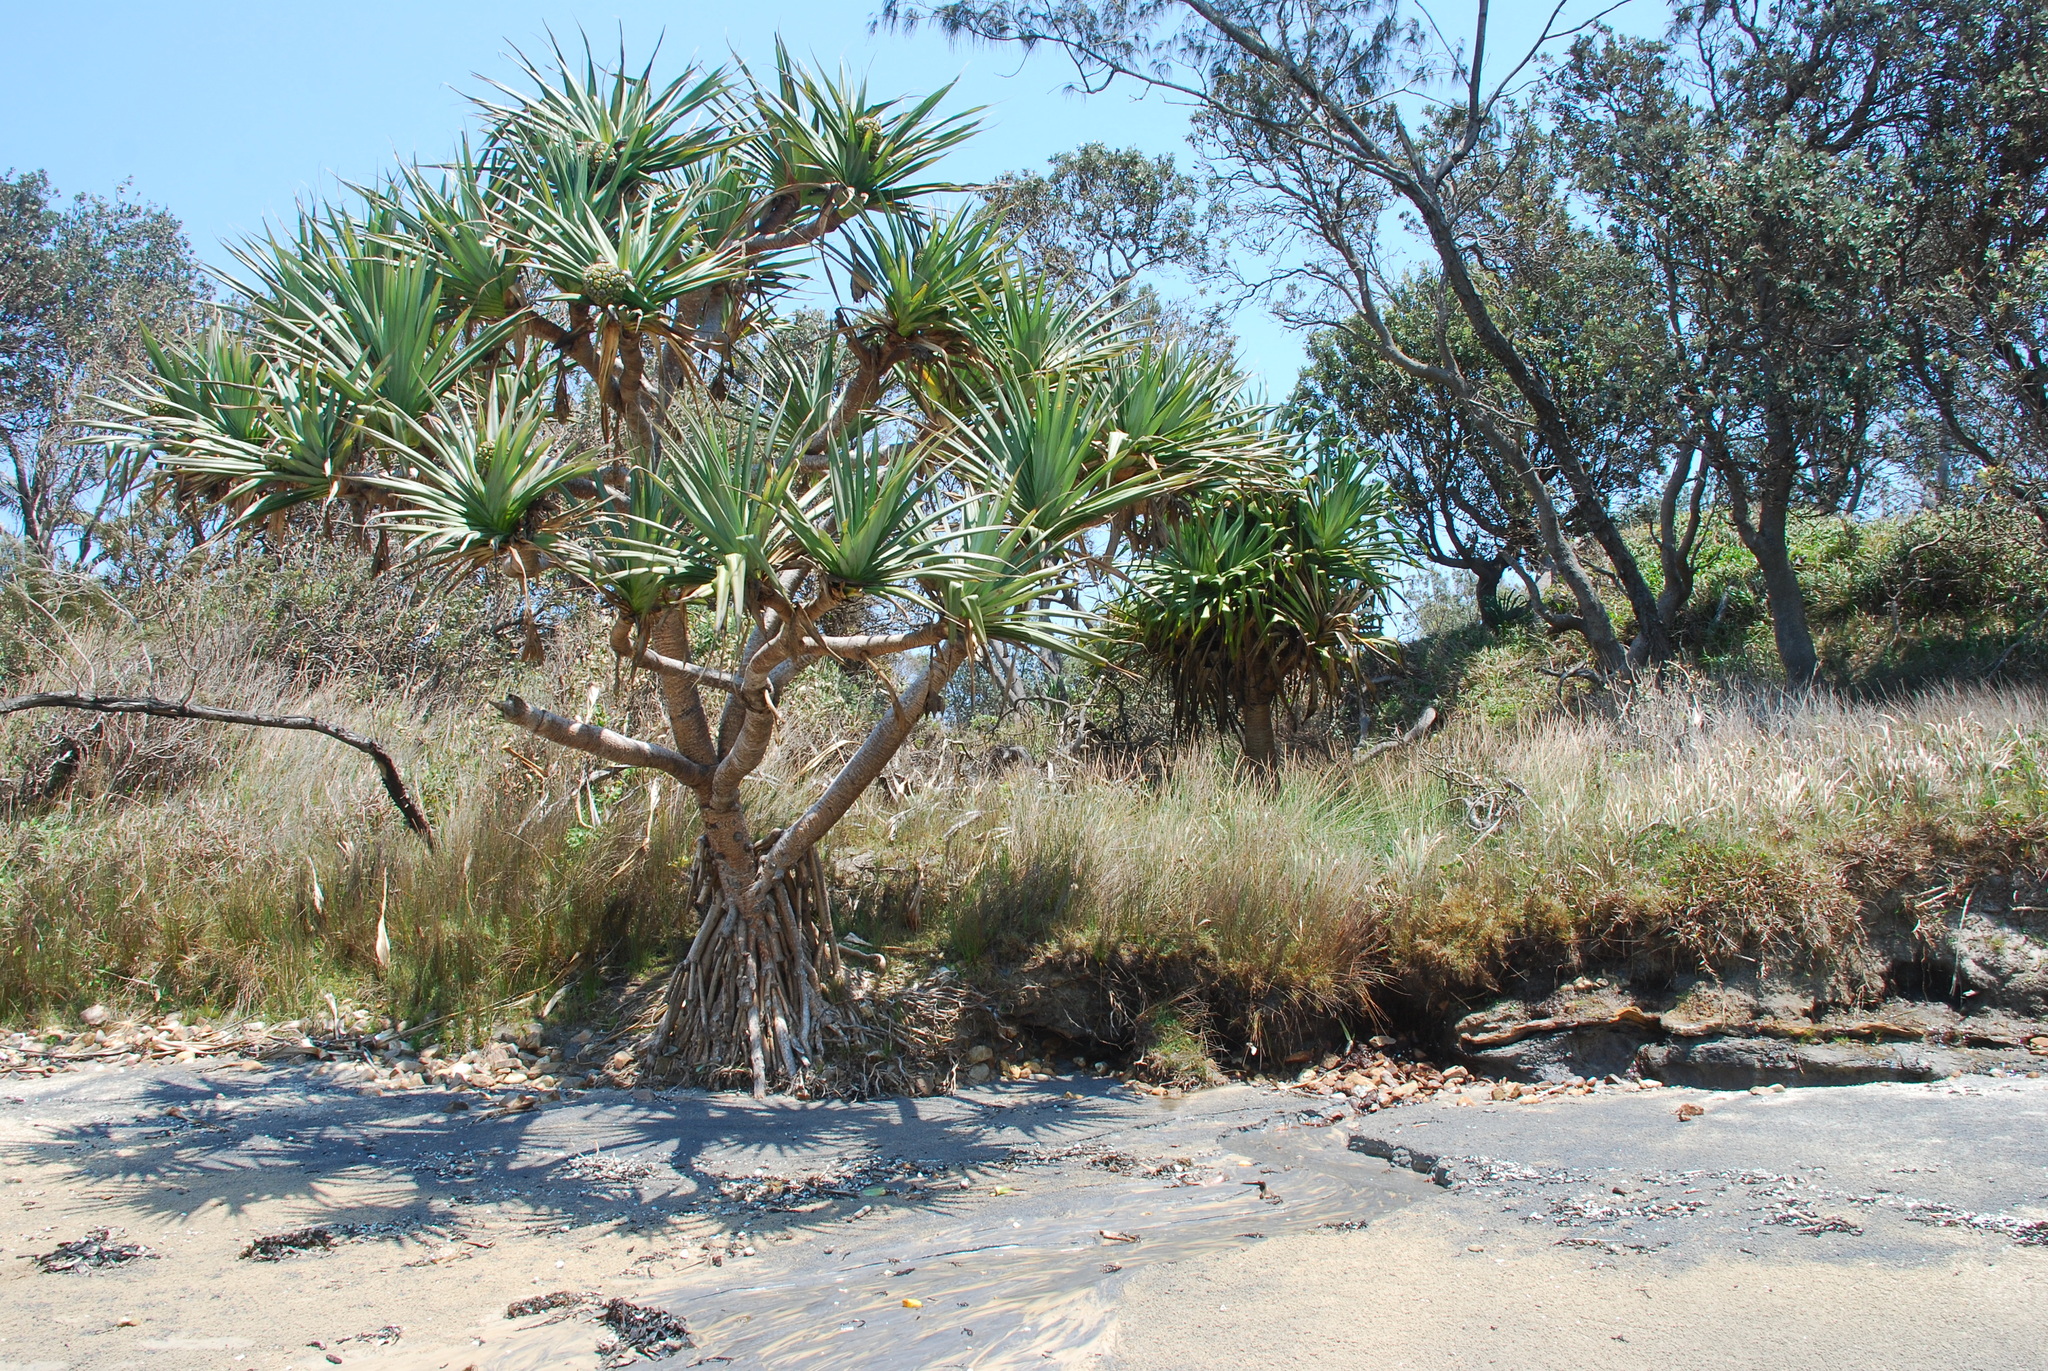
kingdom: Plantae
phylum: Tracheophyta
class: Liliopsida
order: Pandanales
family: Pandanaceae
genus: Pandanus
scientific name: Pandanus tectorius
